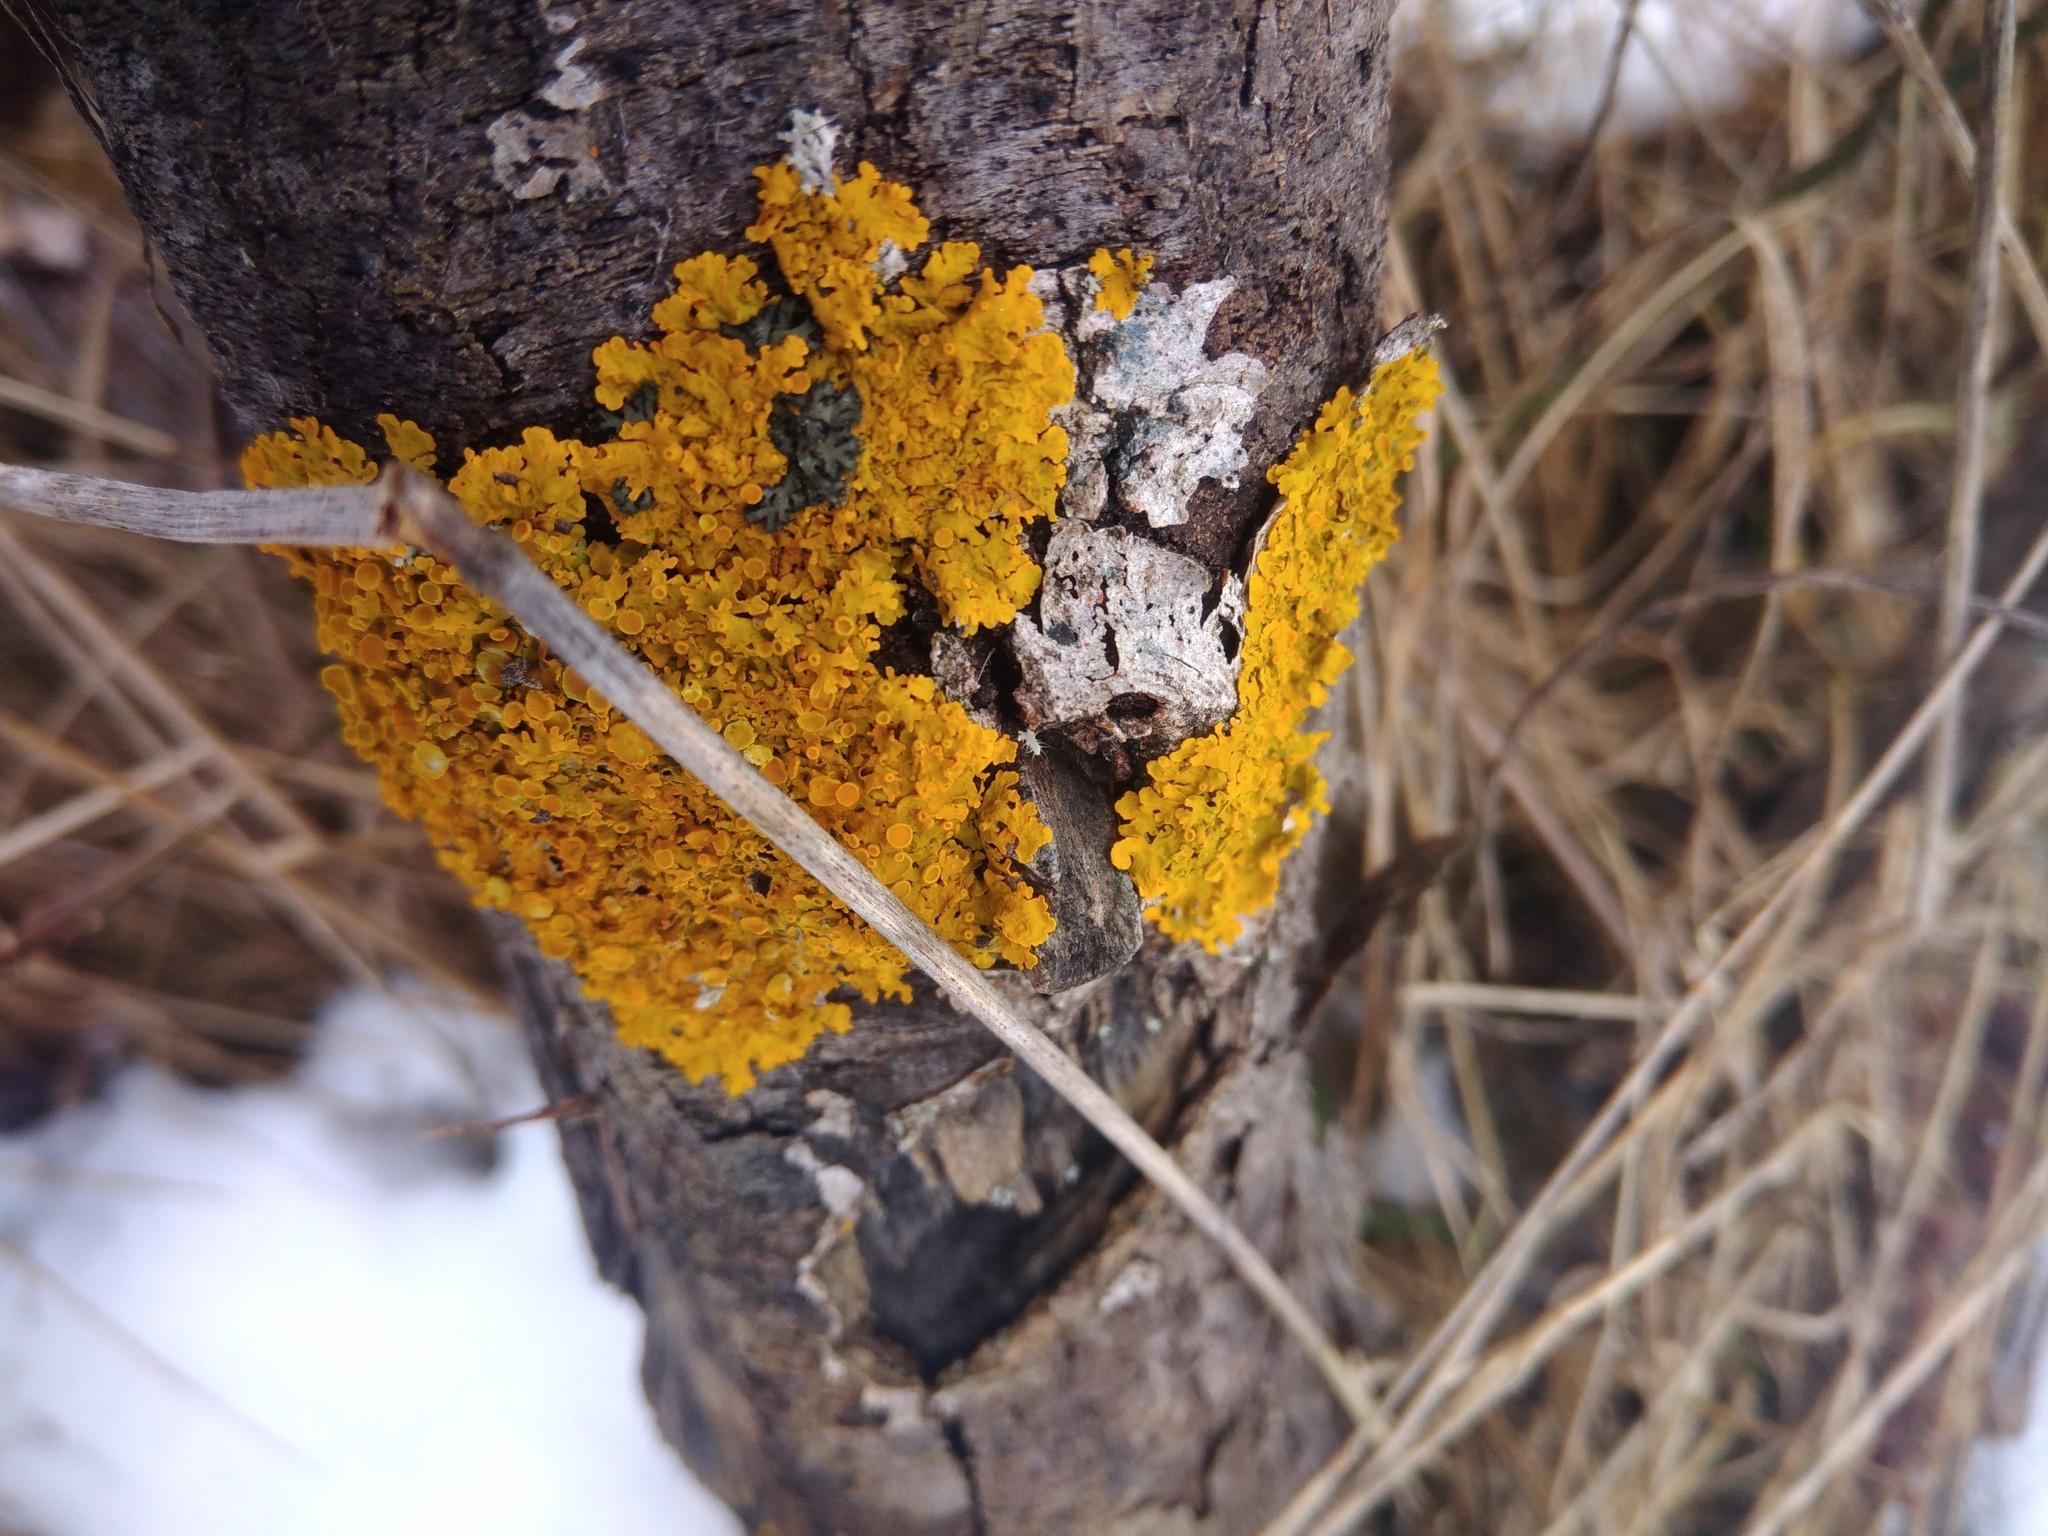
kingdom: Fungi
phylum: Ascomycota
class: Lecanoromycetes
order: Teloschistales
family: Teloschistaceae
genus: Xanthoria
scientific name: Xanthoria parietina
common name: Common orange lichen
